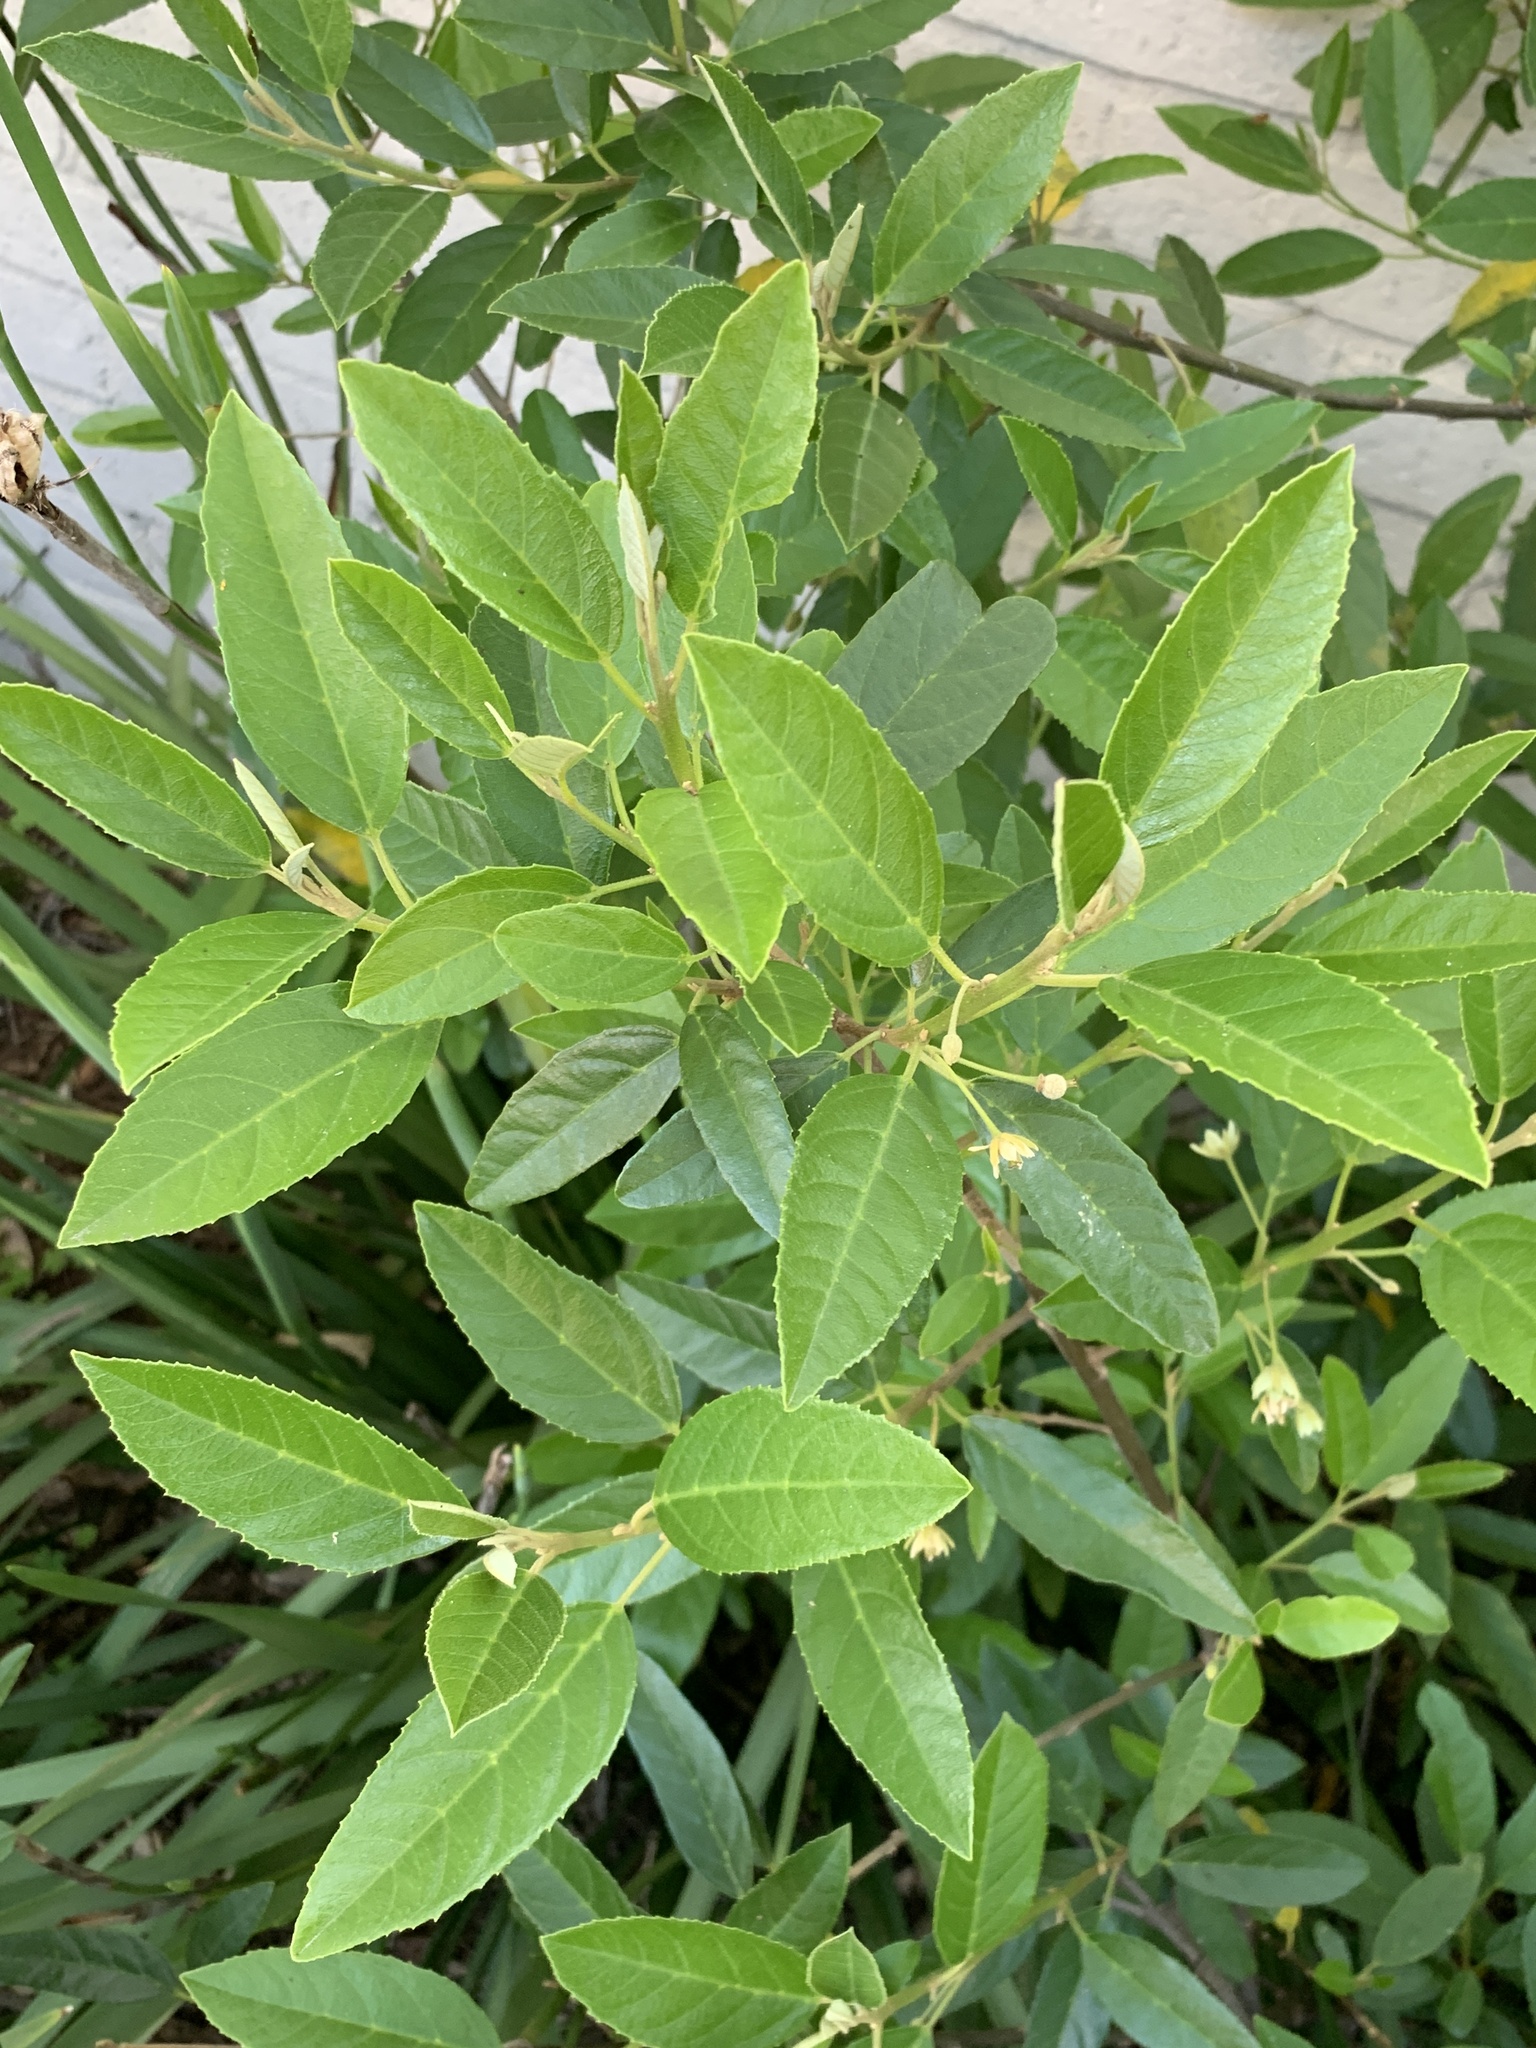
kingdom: Plantae
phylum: Tracheophyta
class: Magnoliopsida
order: Malpighiales
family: Achariaceae
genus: Kiggelaria
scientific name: Kiggelaria africana
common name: Wild peach
